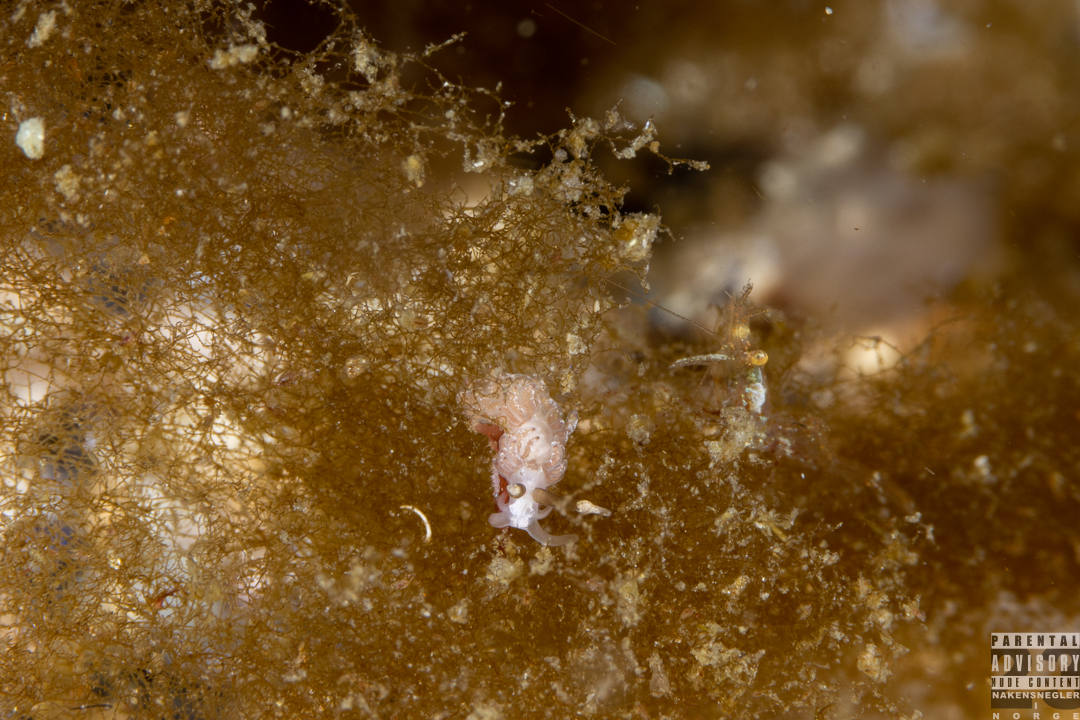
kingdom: Animalia
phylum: Mollusca
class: Gastropoda
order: Nudibranchia
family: Facelinidae
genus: Favorinus
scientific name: Favorinus branchialis
